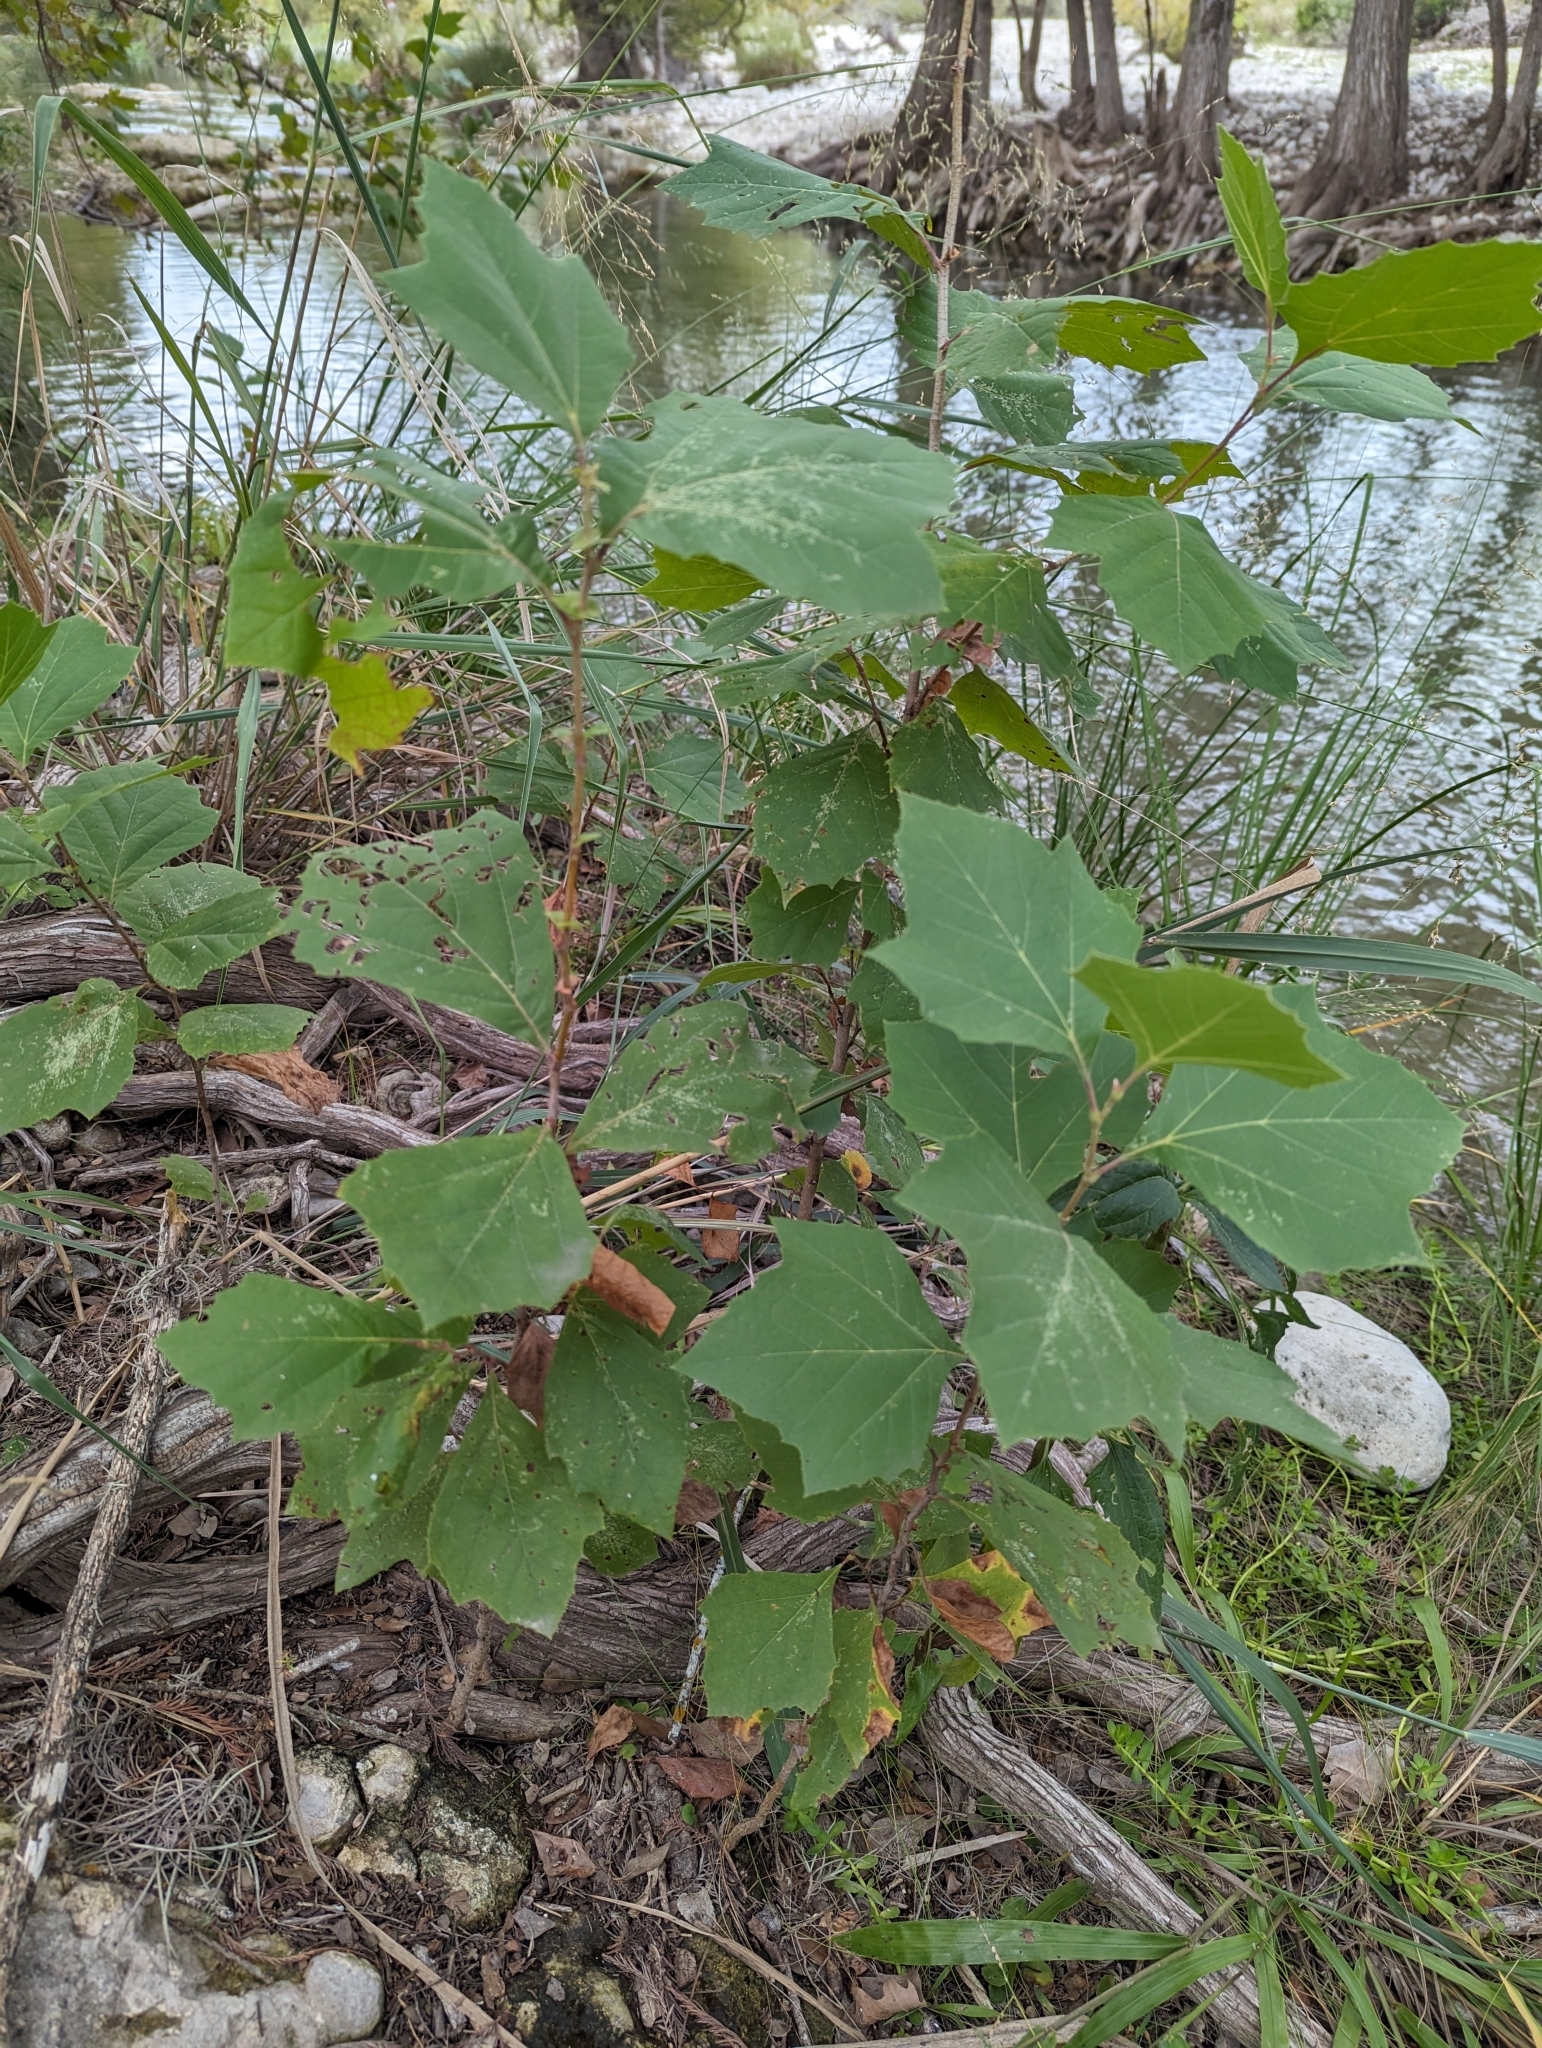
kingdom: Plantae
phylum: Tracheophyta
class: Magnoliopsida
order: Proteales
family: Platanaceae
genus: Platanus
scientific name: Platanus occidentalis
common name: American sycamore
